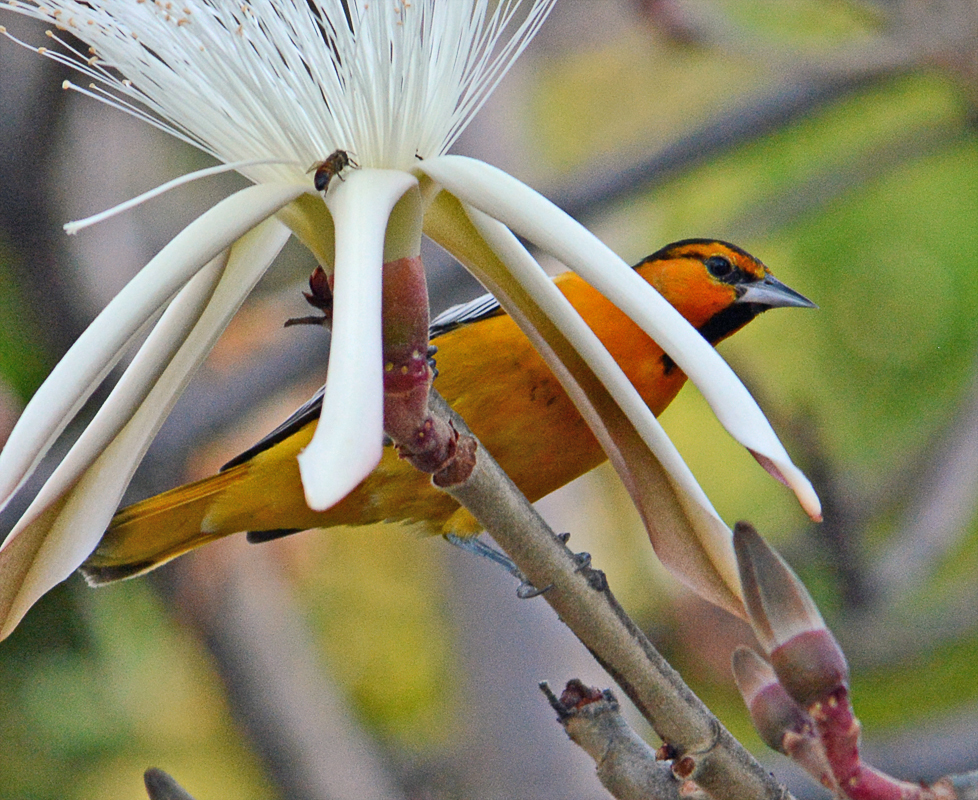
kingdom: Animalia
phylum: Chordata
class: Aves
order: Passeriformes
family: Icteridae
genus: Icterus
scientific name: Icterus bullockii
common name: Bullock's oriole
